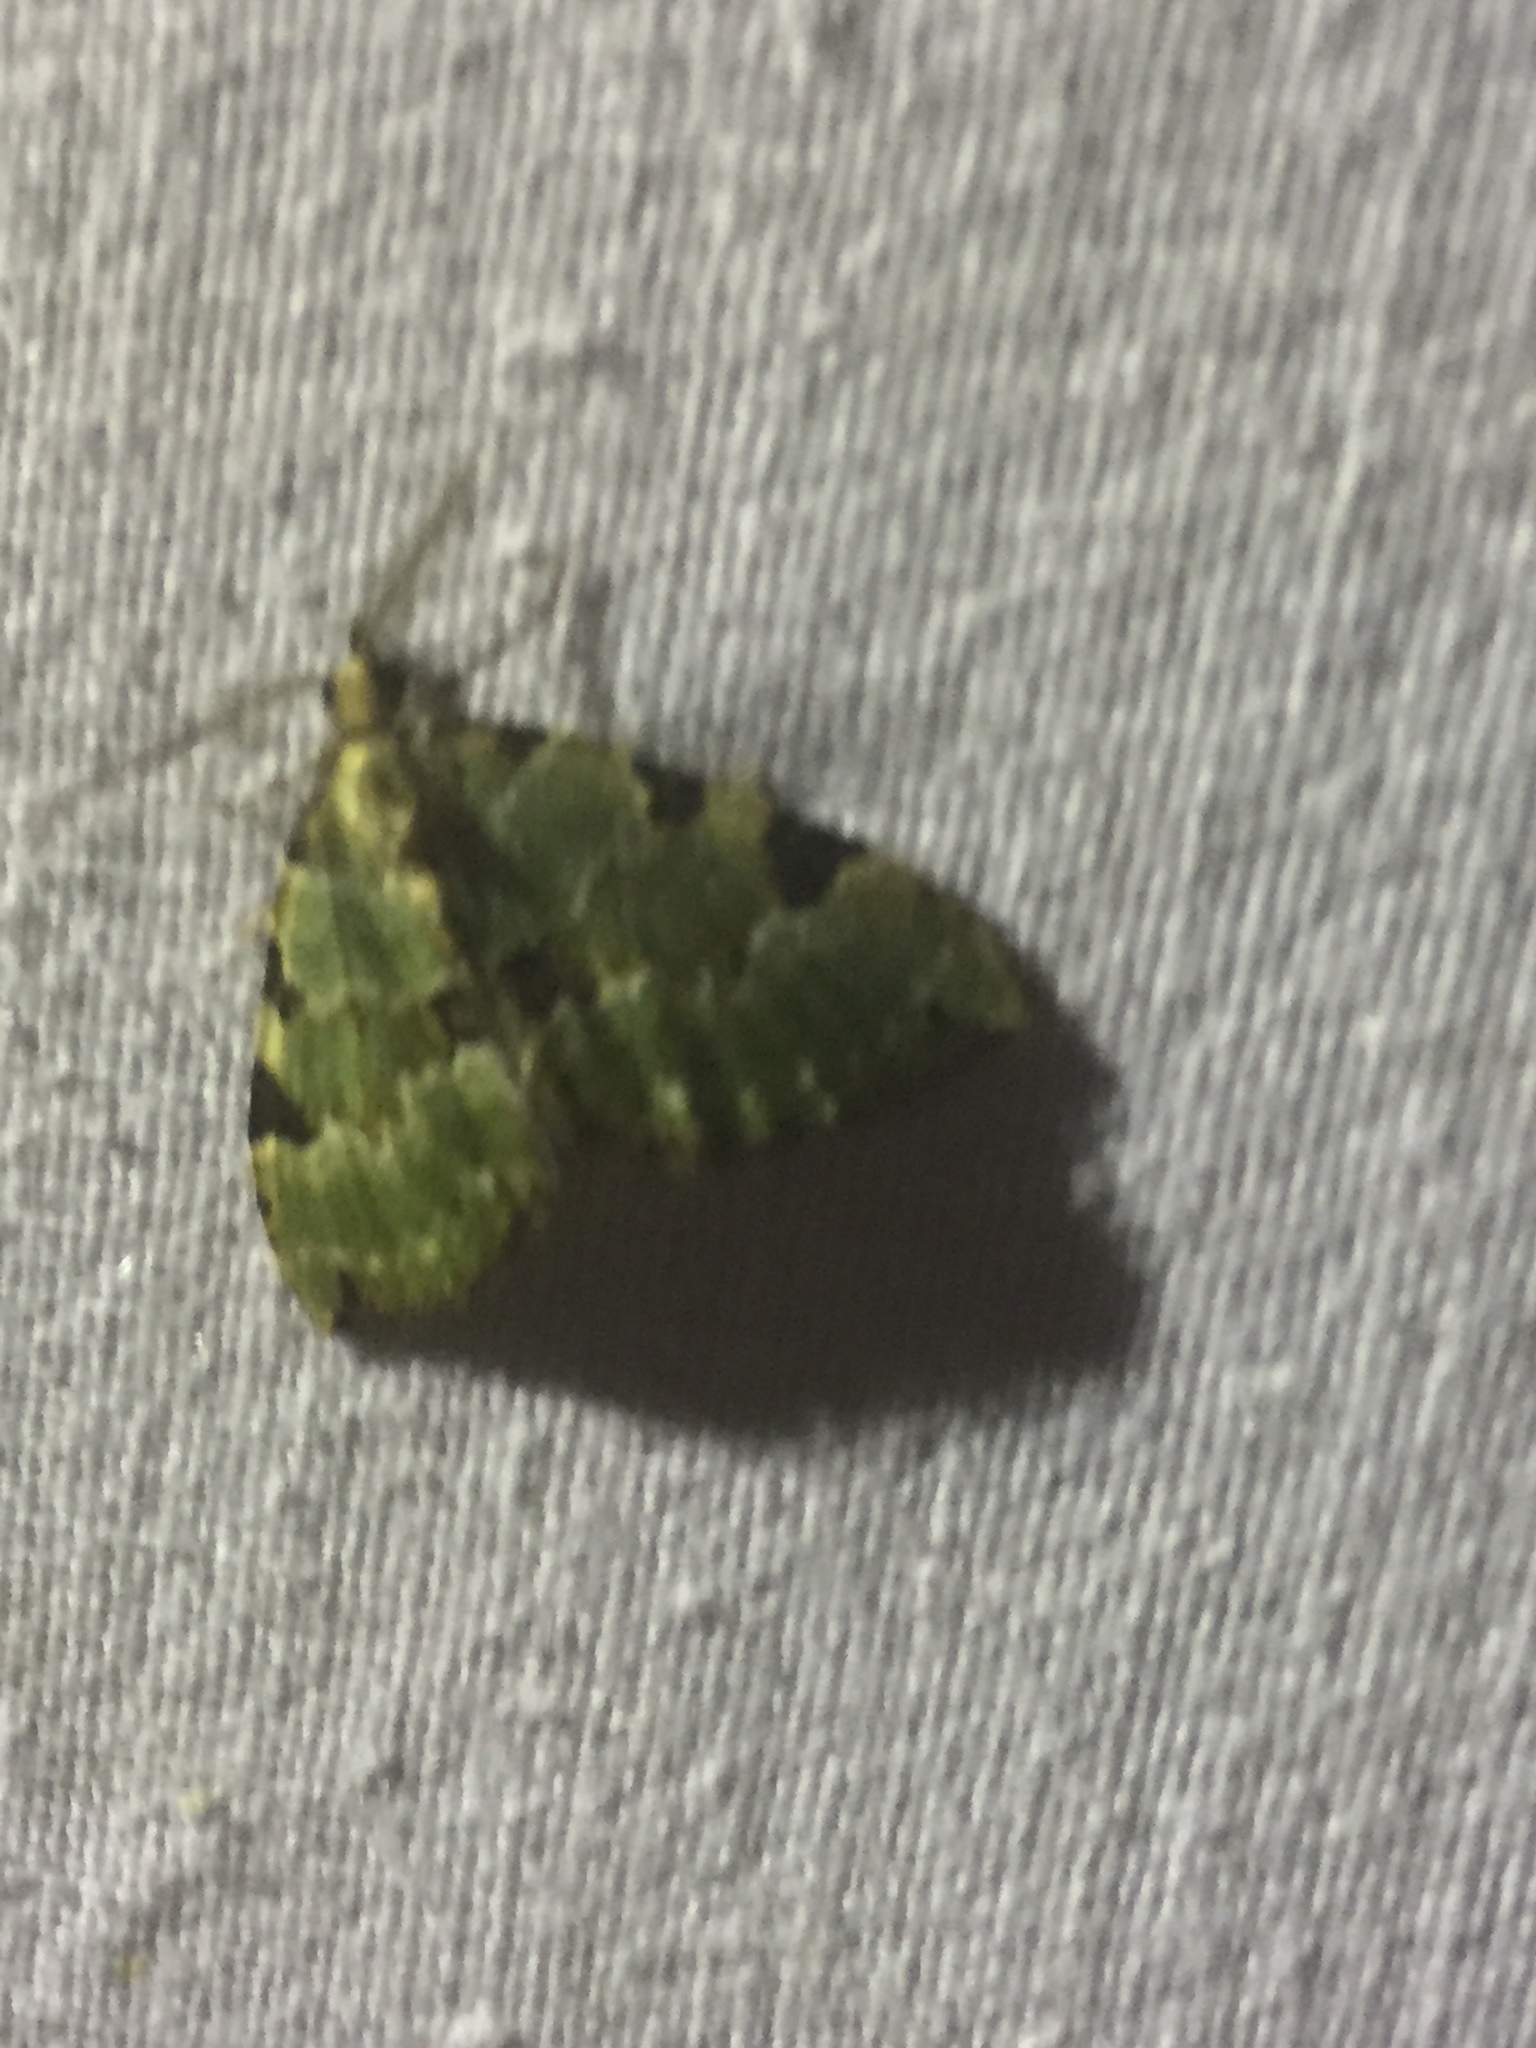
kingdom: Animalia
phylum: Arthropoda
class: Insecta
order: Lepidoptera
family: Geometridae
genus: Colostygia
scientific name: Colostygia pectinataria
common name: Green carpet
